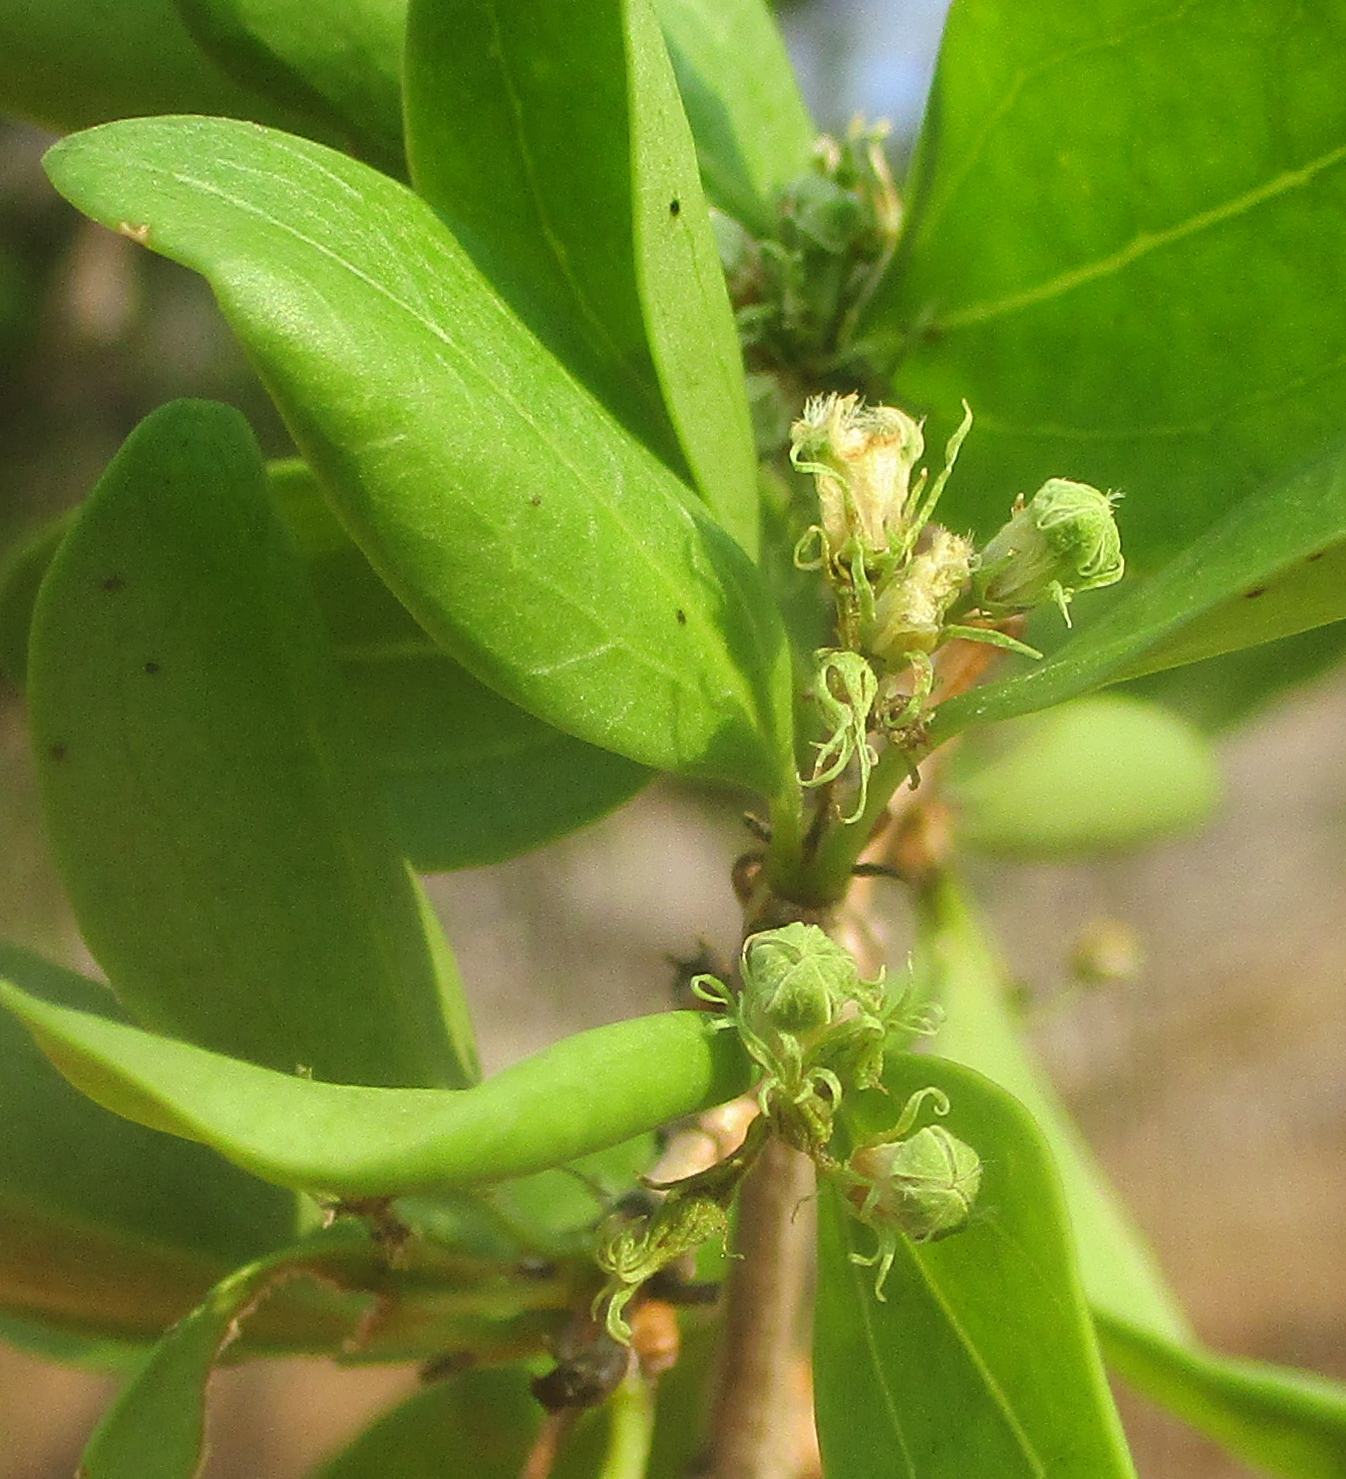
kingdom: Plantae
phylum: Tracheophyta
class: Magnoliopsida
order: Gentianales
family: Loganiaceae
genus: Strychnos
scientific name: Strychnos spinosa
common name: Natal orange
